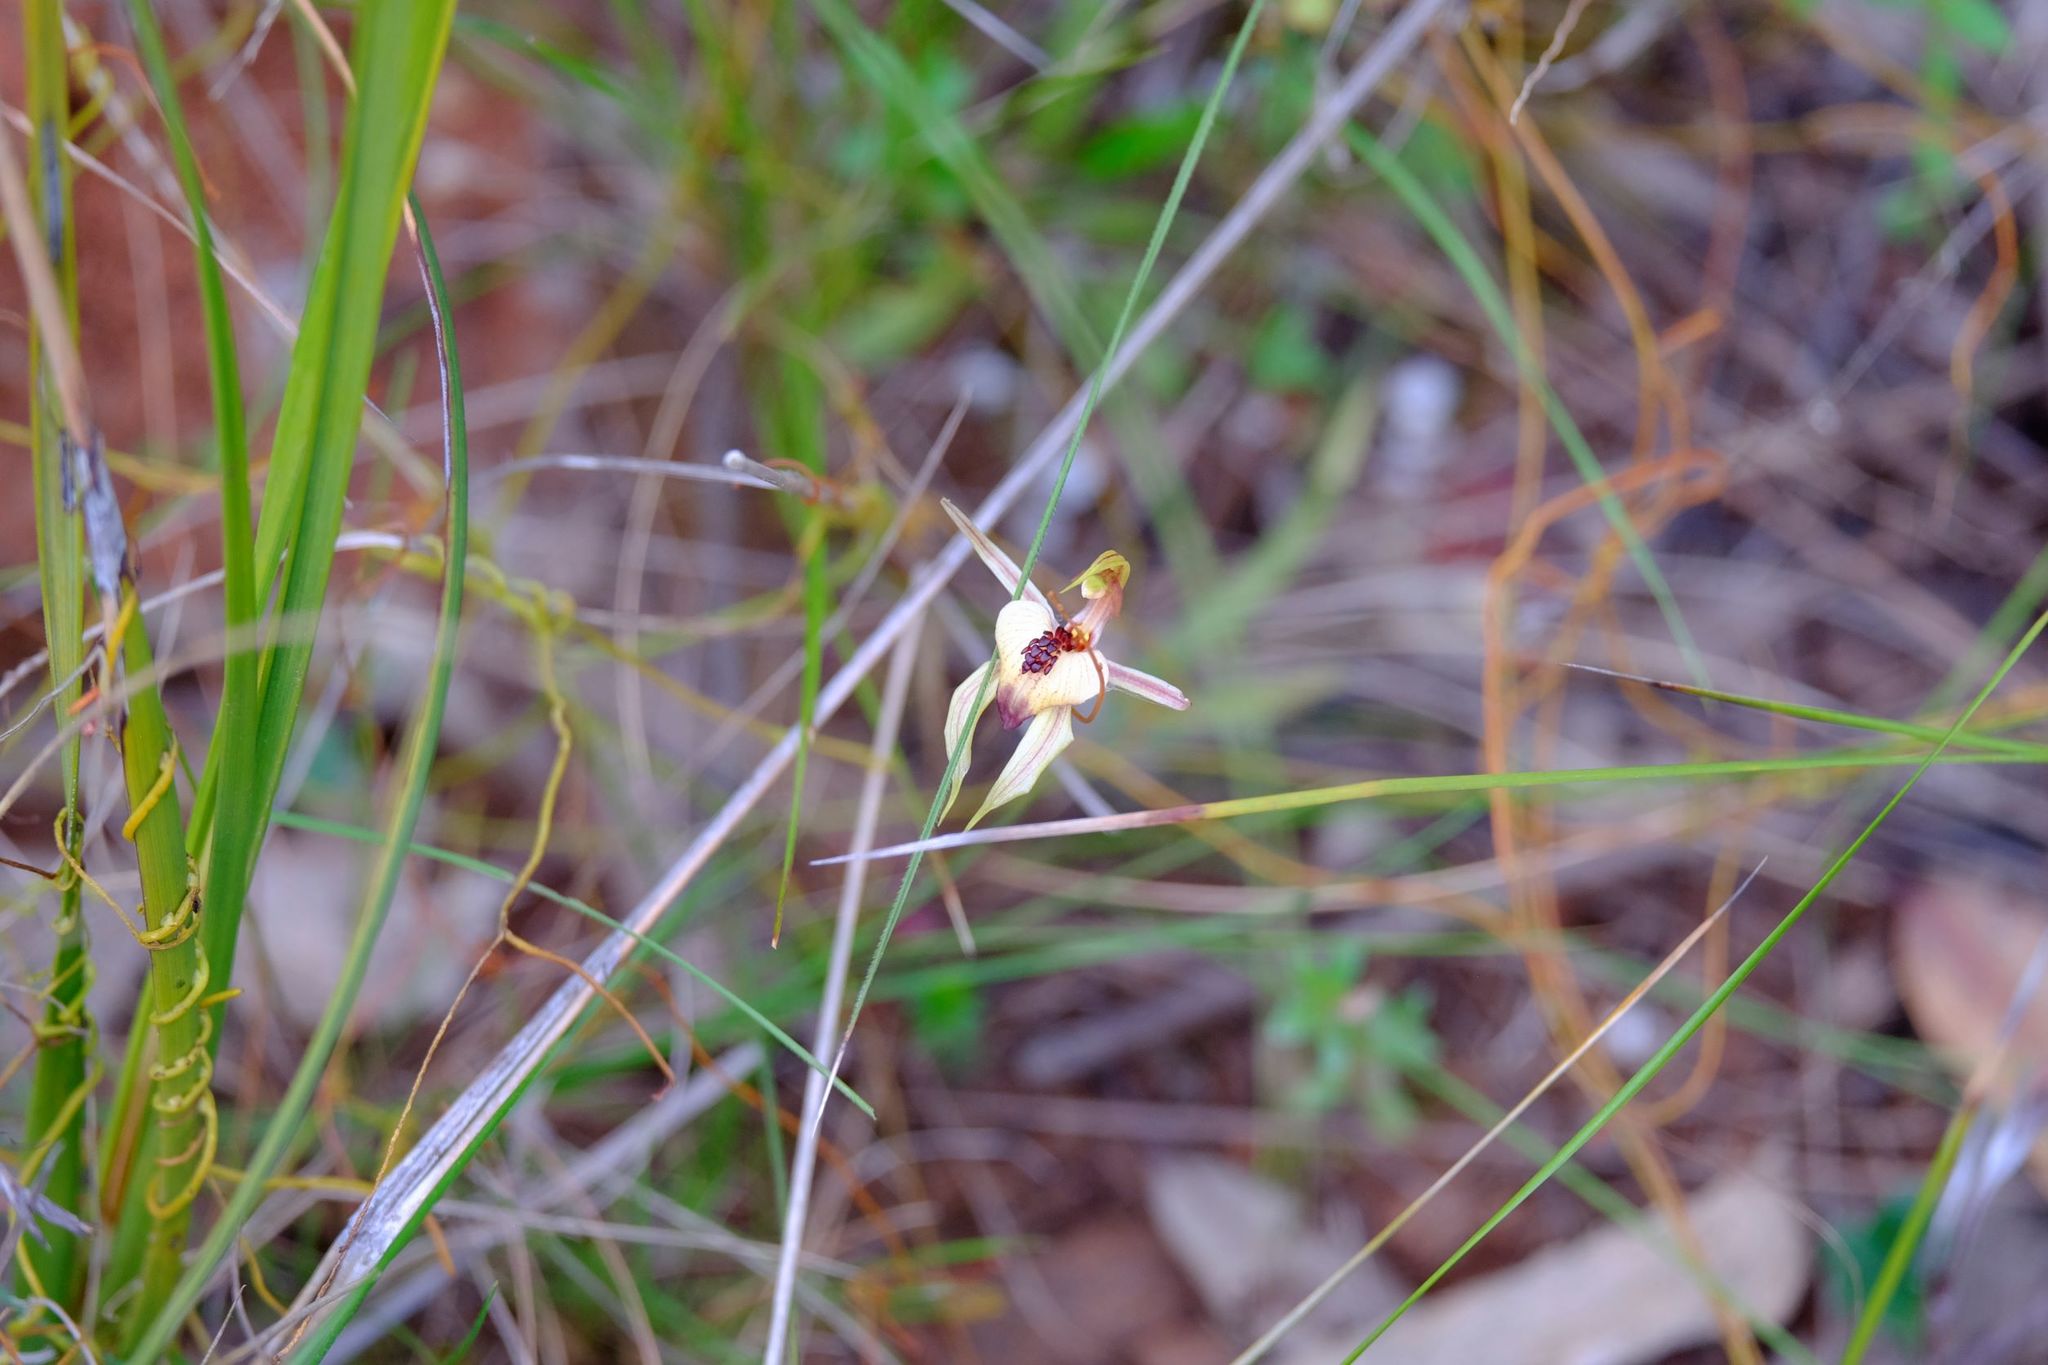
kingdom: Plantae
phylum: Tracheophyta
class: Liliopsida
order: Asparagales
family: Orchidaceae
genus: Caladenia
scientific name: Caladenia cardiochila
